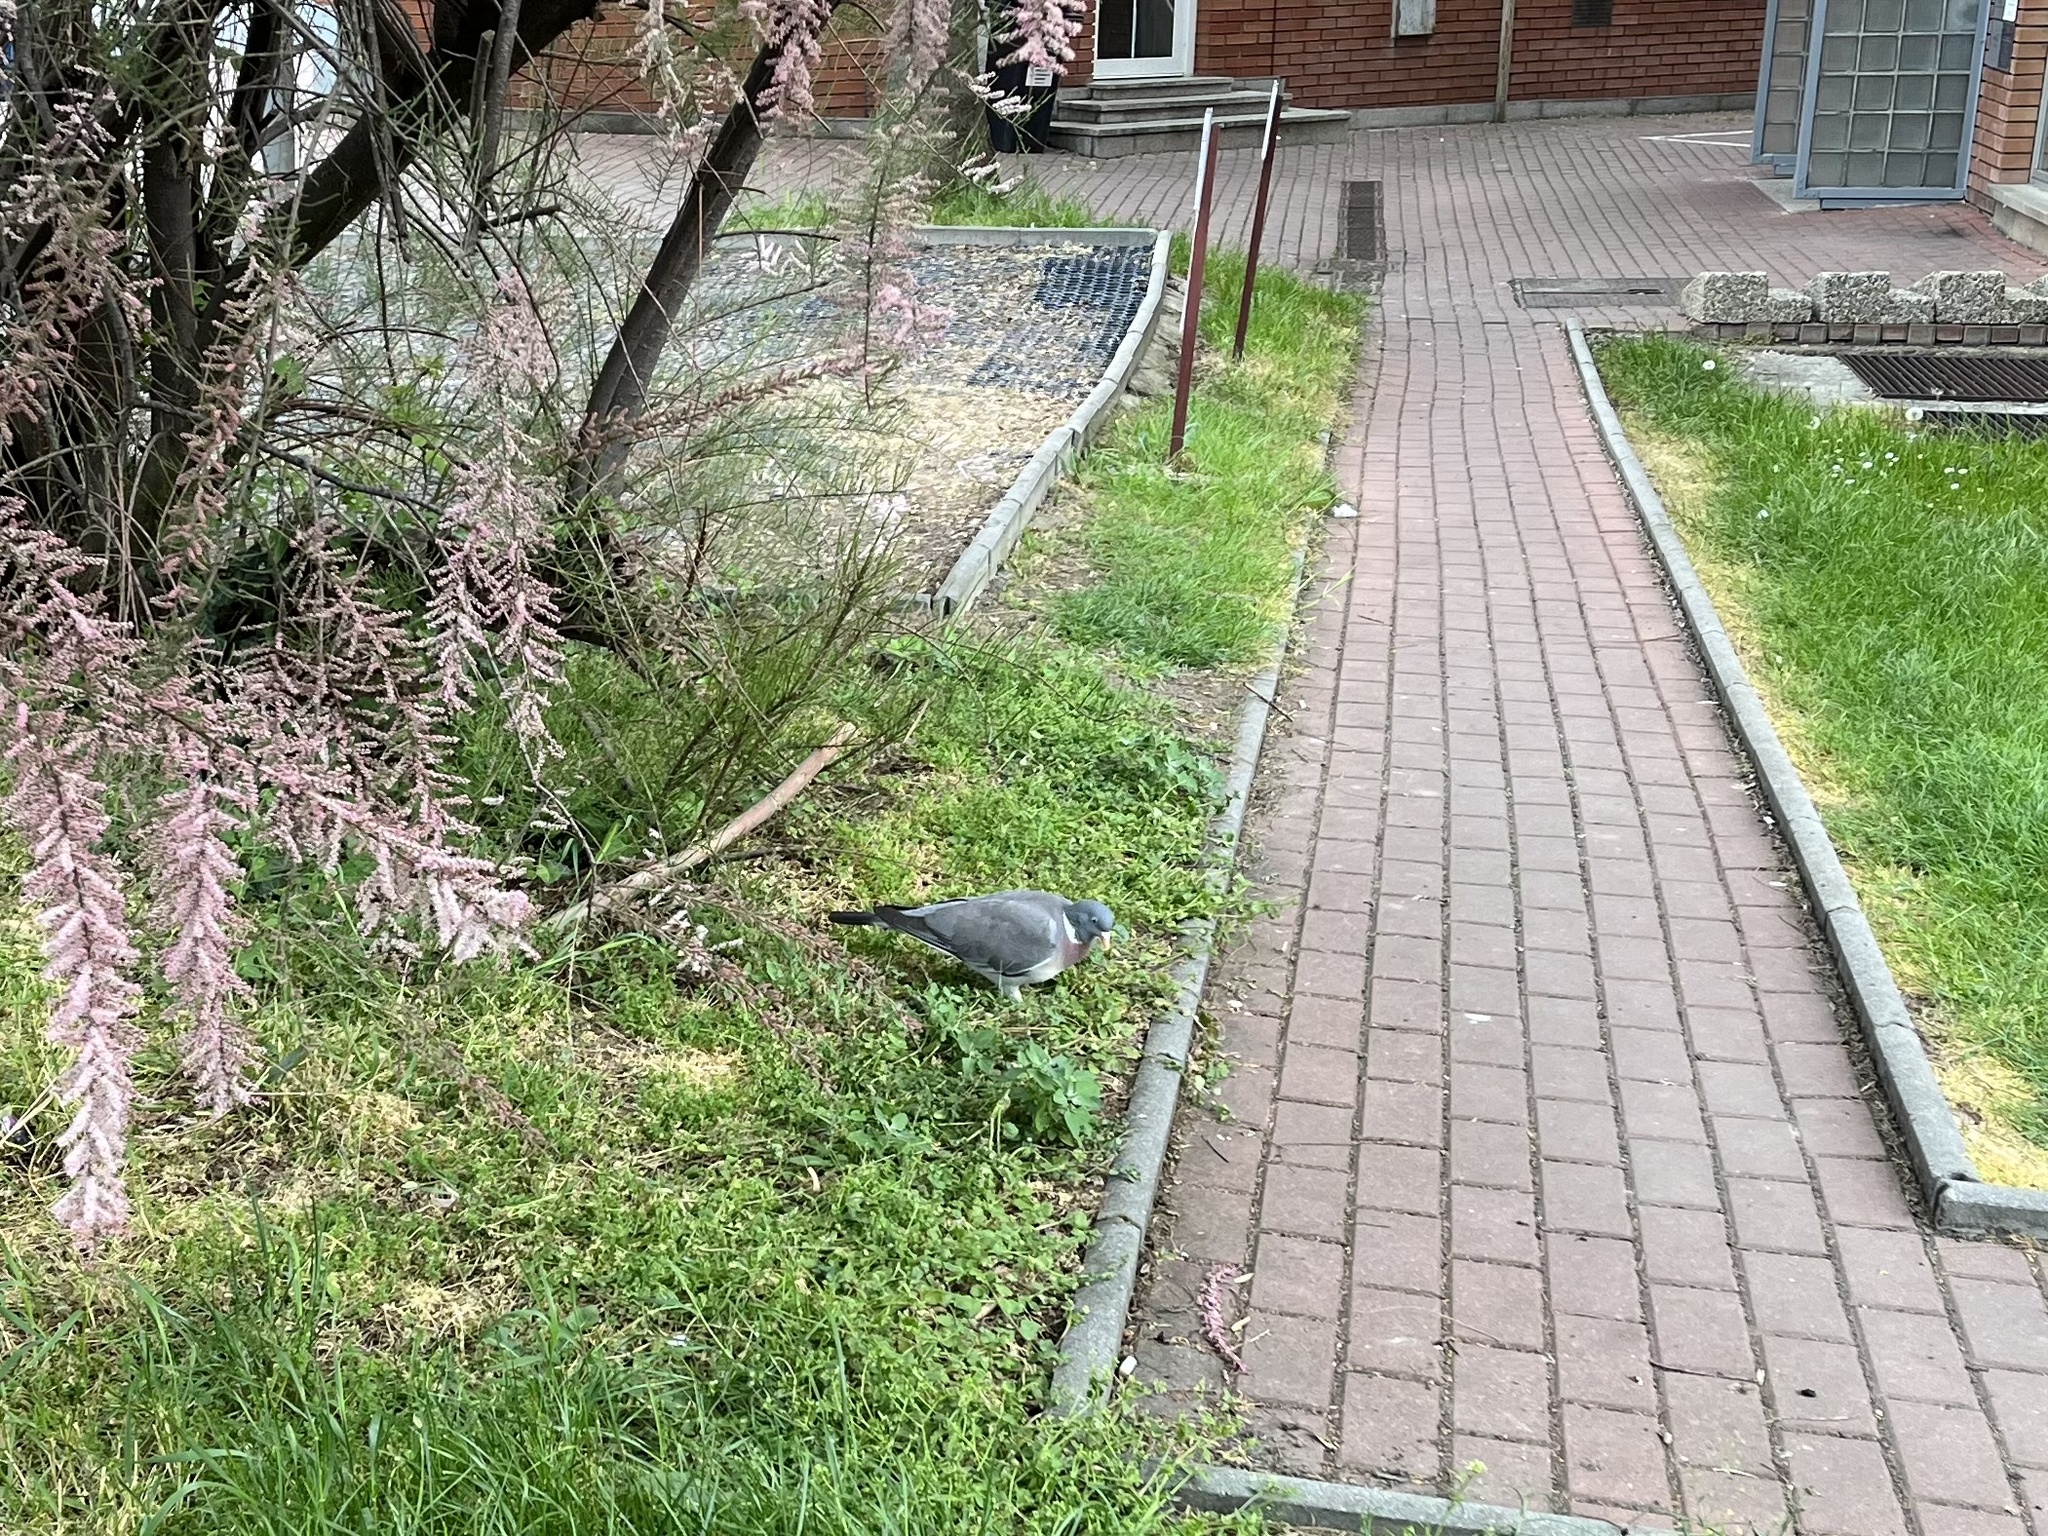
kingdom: Animalia
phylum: Chordata
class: Aves
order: Columbiformes
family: Columbidae
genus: Columba
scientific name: Columba palumbus
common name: Common wood pigeon
